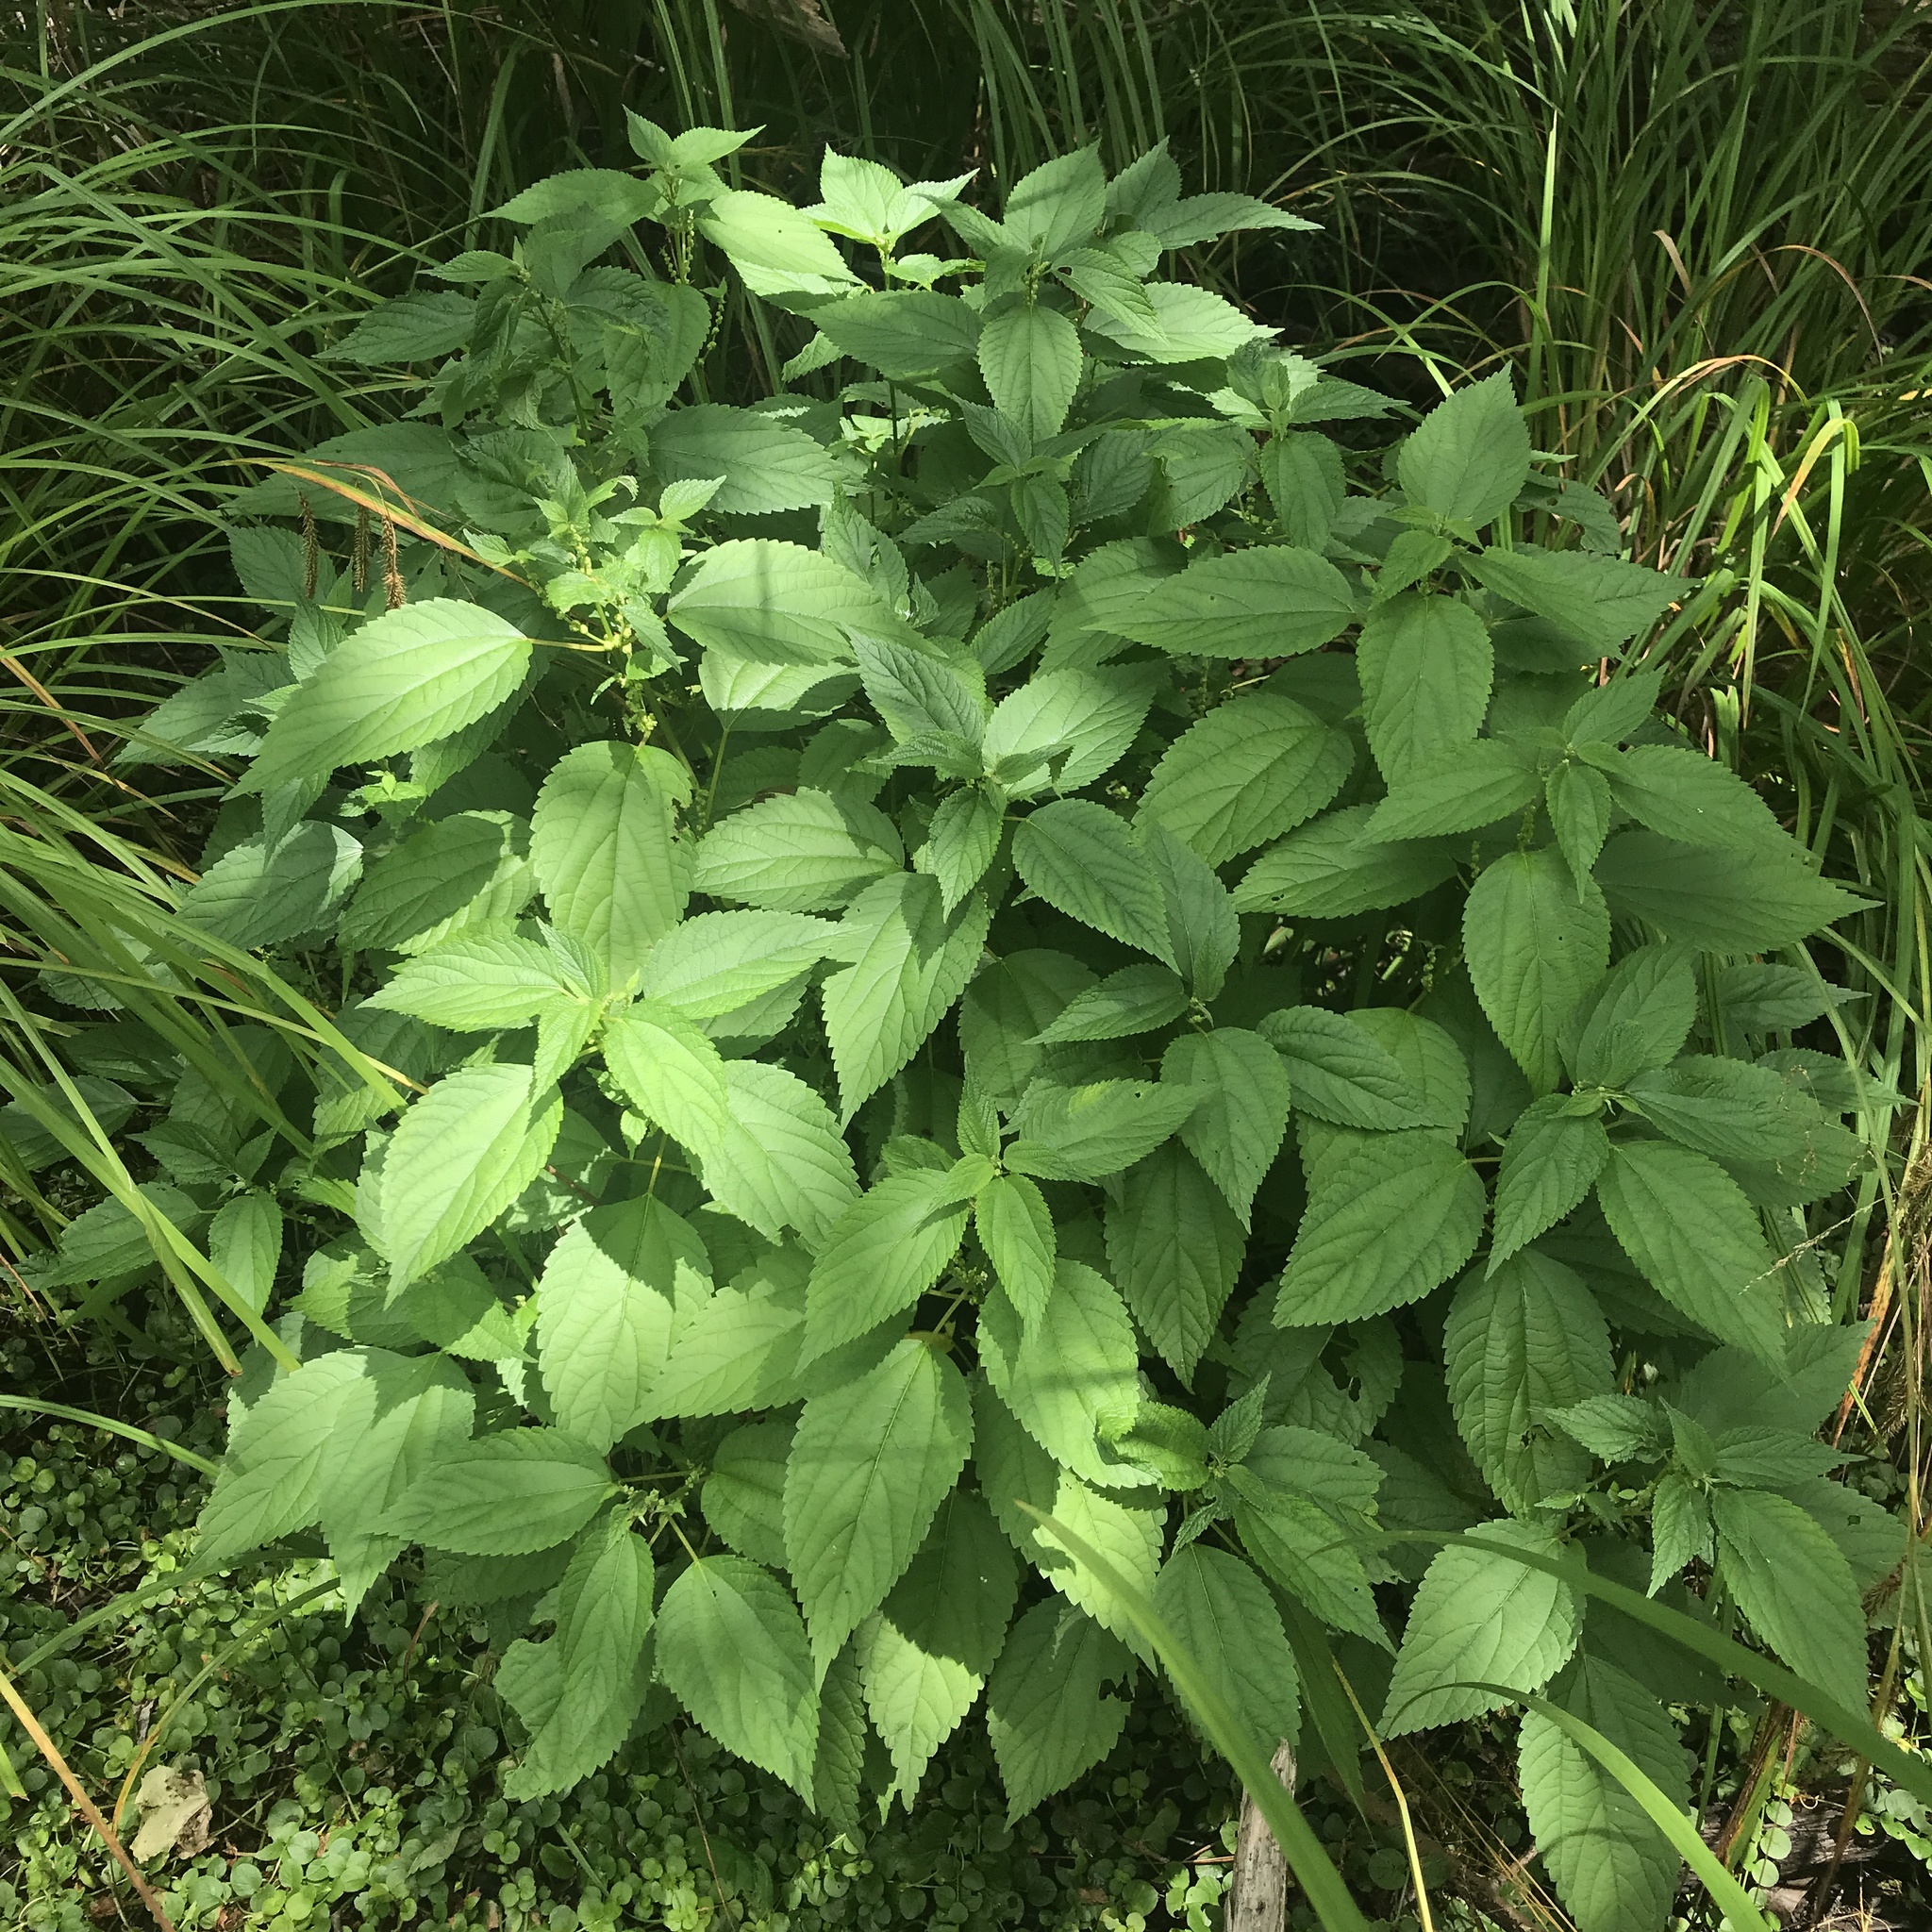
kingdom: Plantae
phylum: Tracheophyta
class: Magnoliopsida
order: Rosales
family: Urticaceae
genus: Boehmeria
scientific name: Boehmeria cylindrica
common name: Bog-hemp
